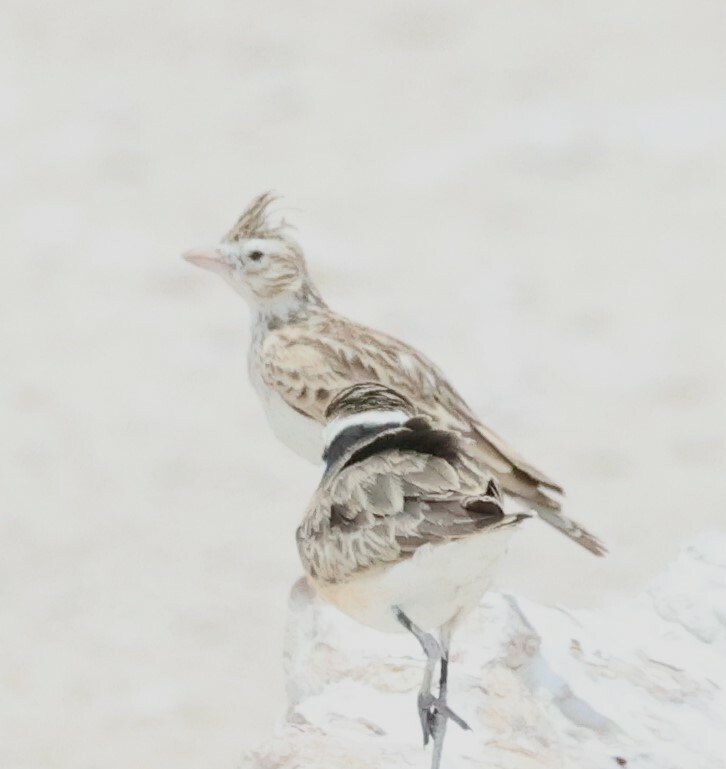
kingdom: Animalia
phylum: Chordata
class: Aves
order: Passeriformes
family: Alaudidae
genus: Spizocorys
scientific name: Spizocorys starki
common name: Stark's lark
